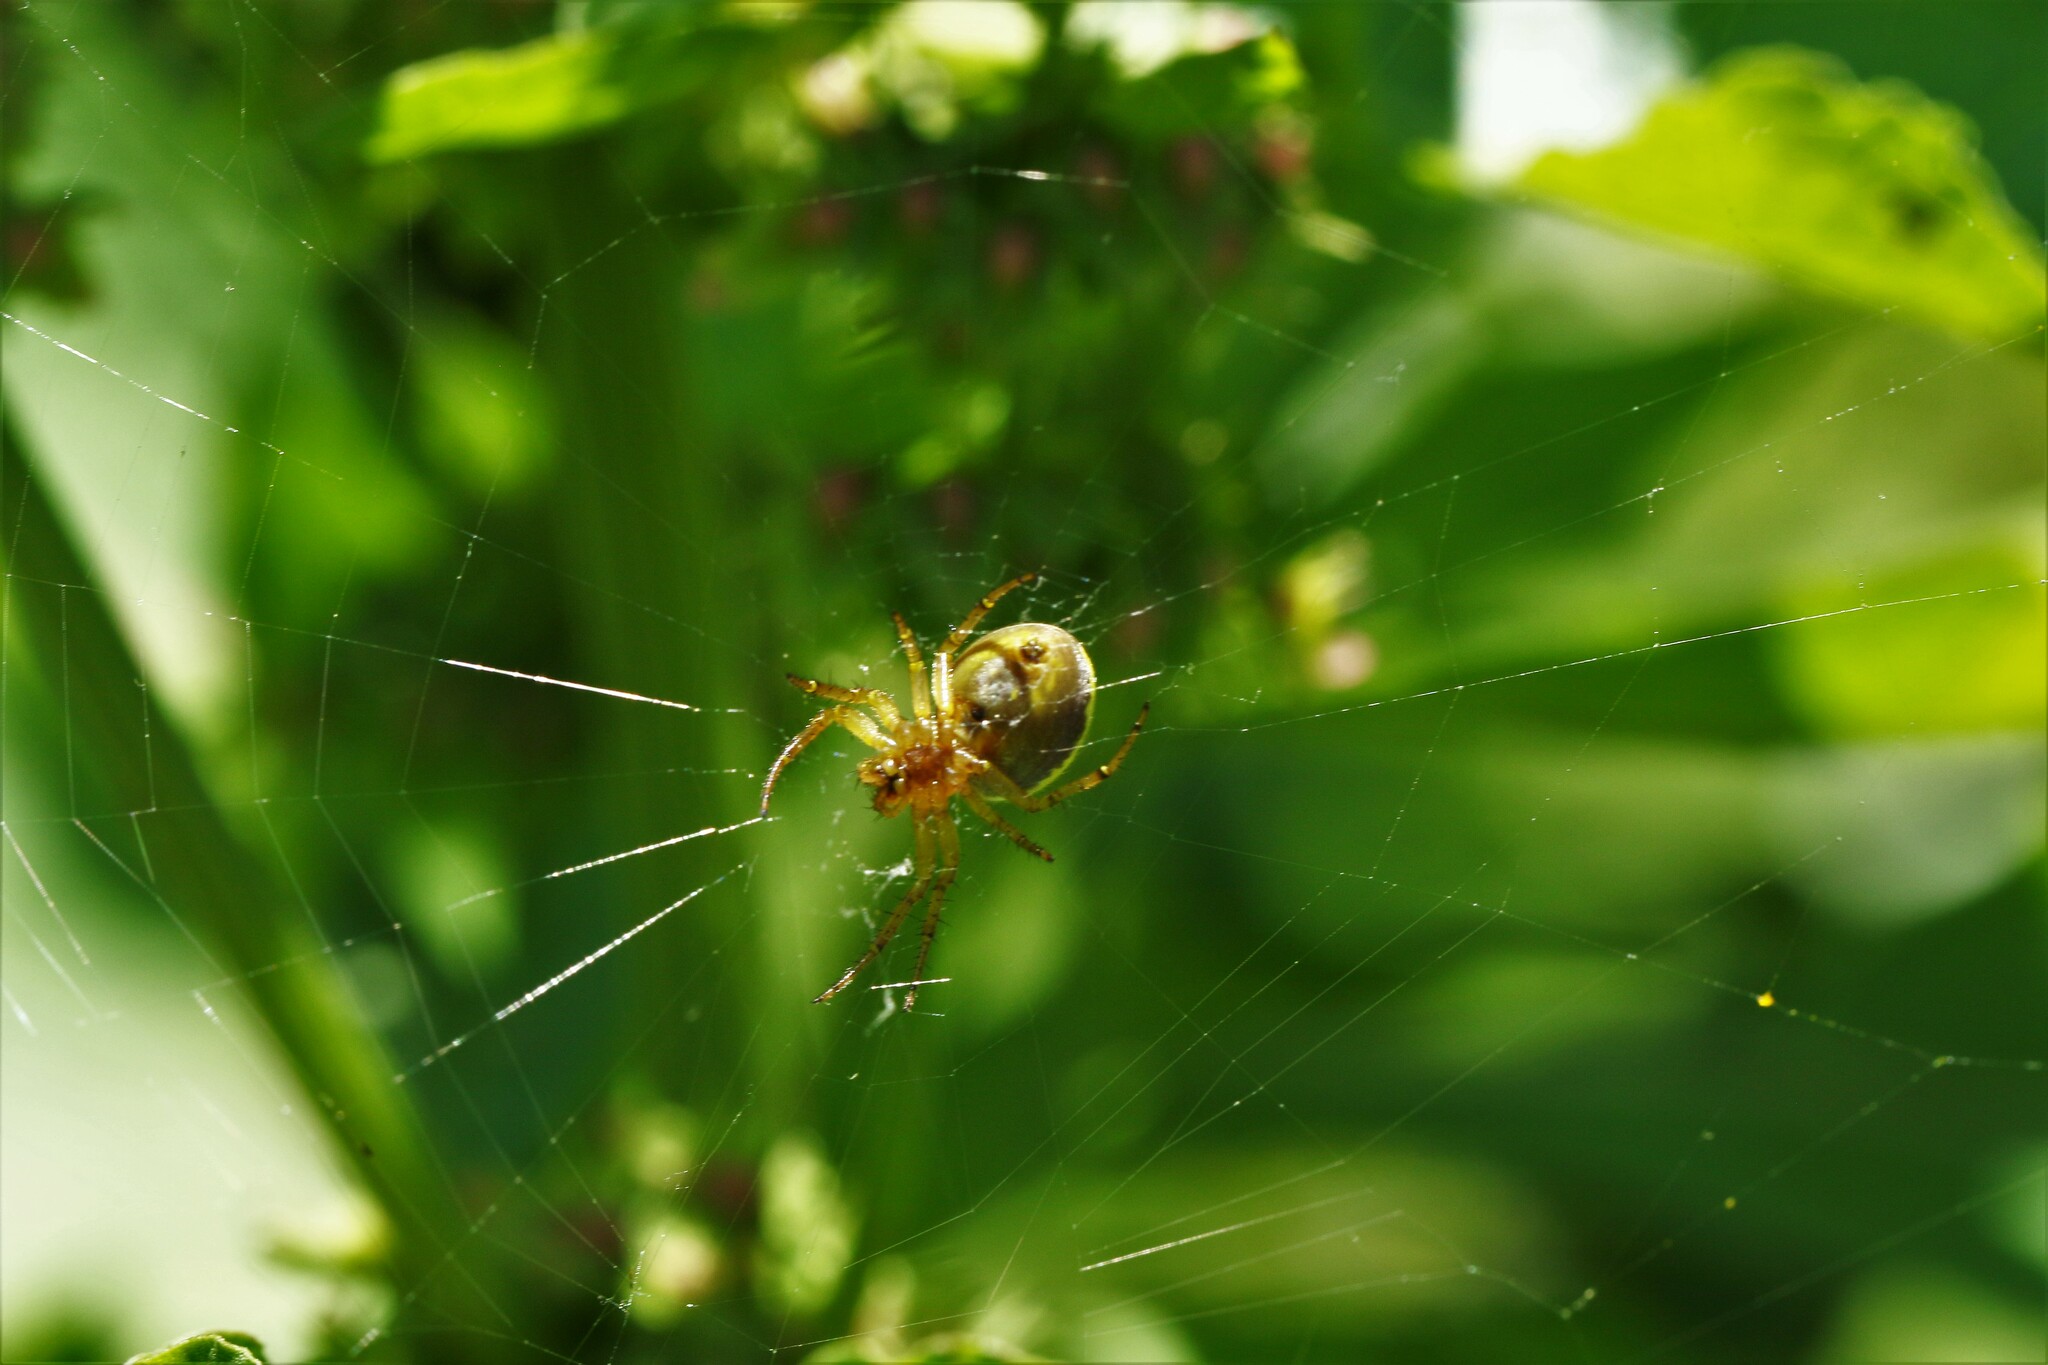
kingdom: Animalia
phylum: Arthropoda
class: Arachnida
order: Araneae
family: Araneidae
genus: Araniella
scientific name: Araniella displicata
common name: Sixspotted orb weaver
